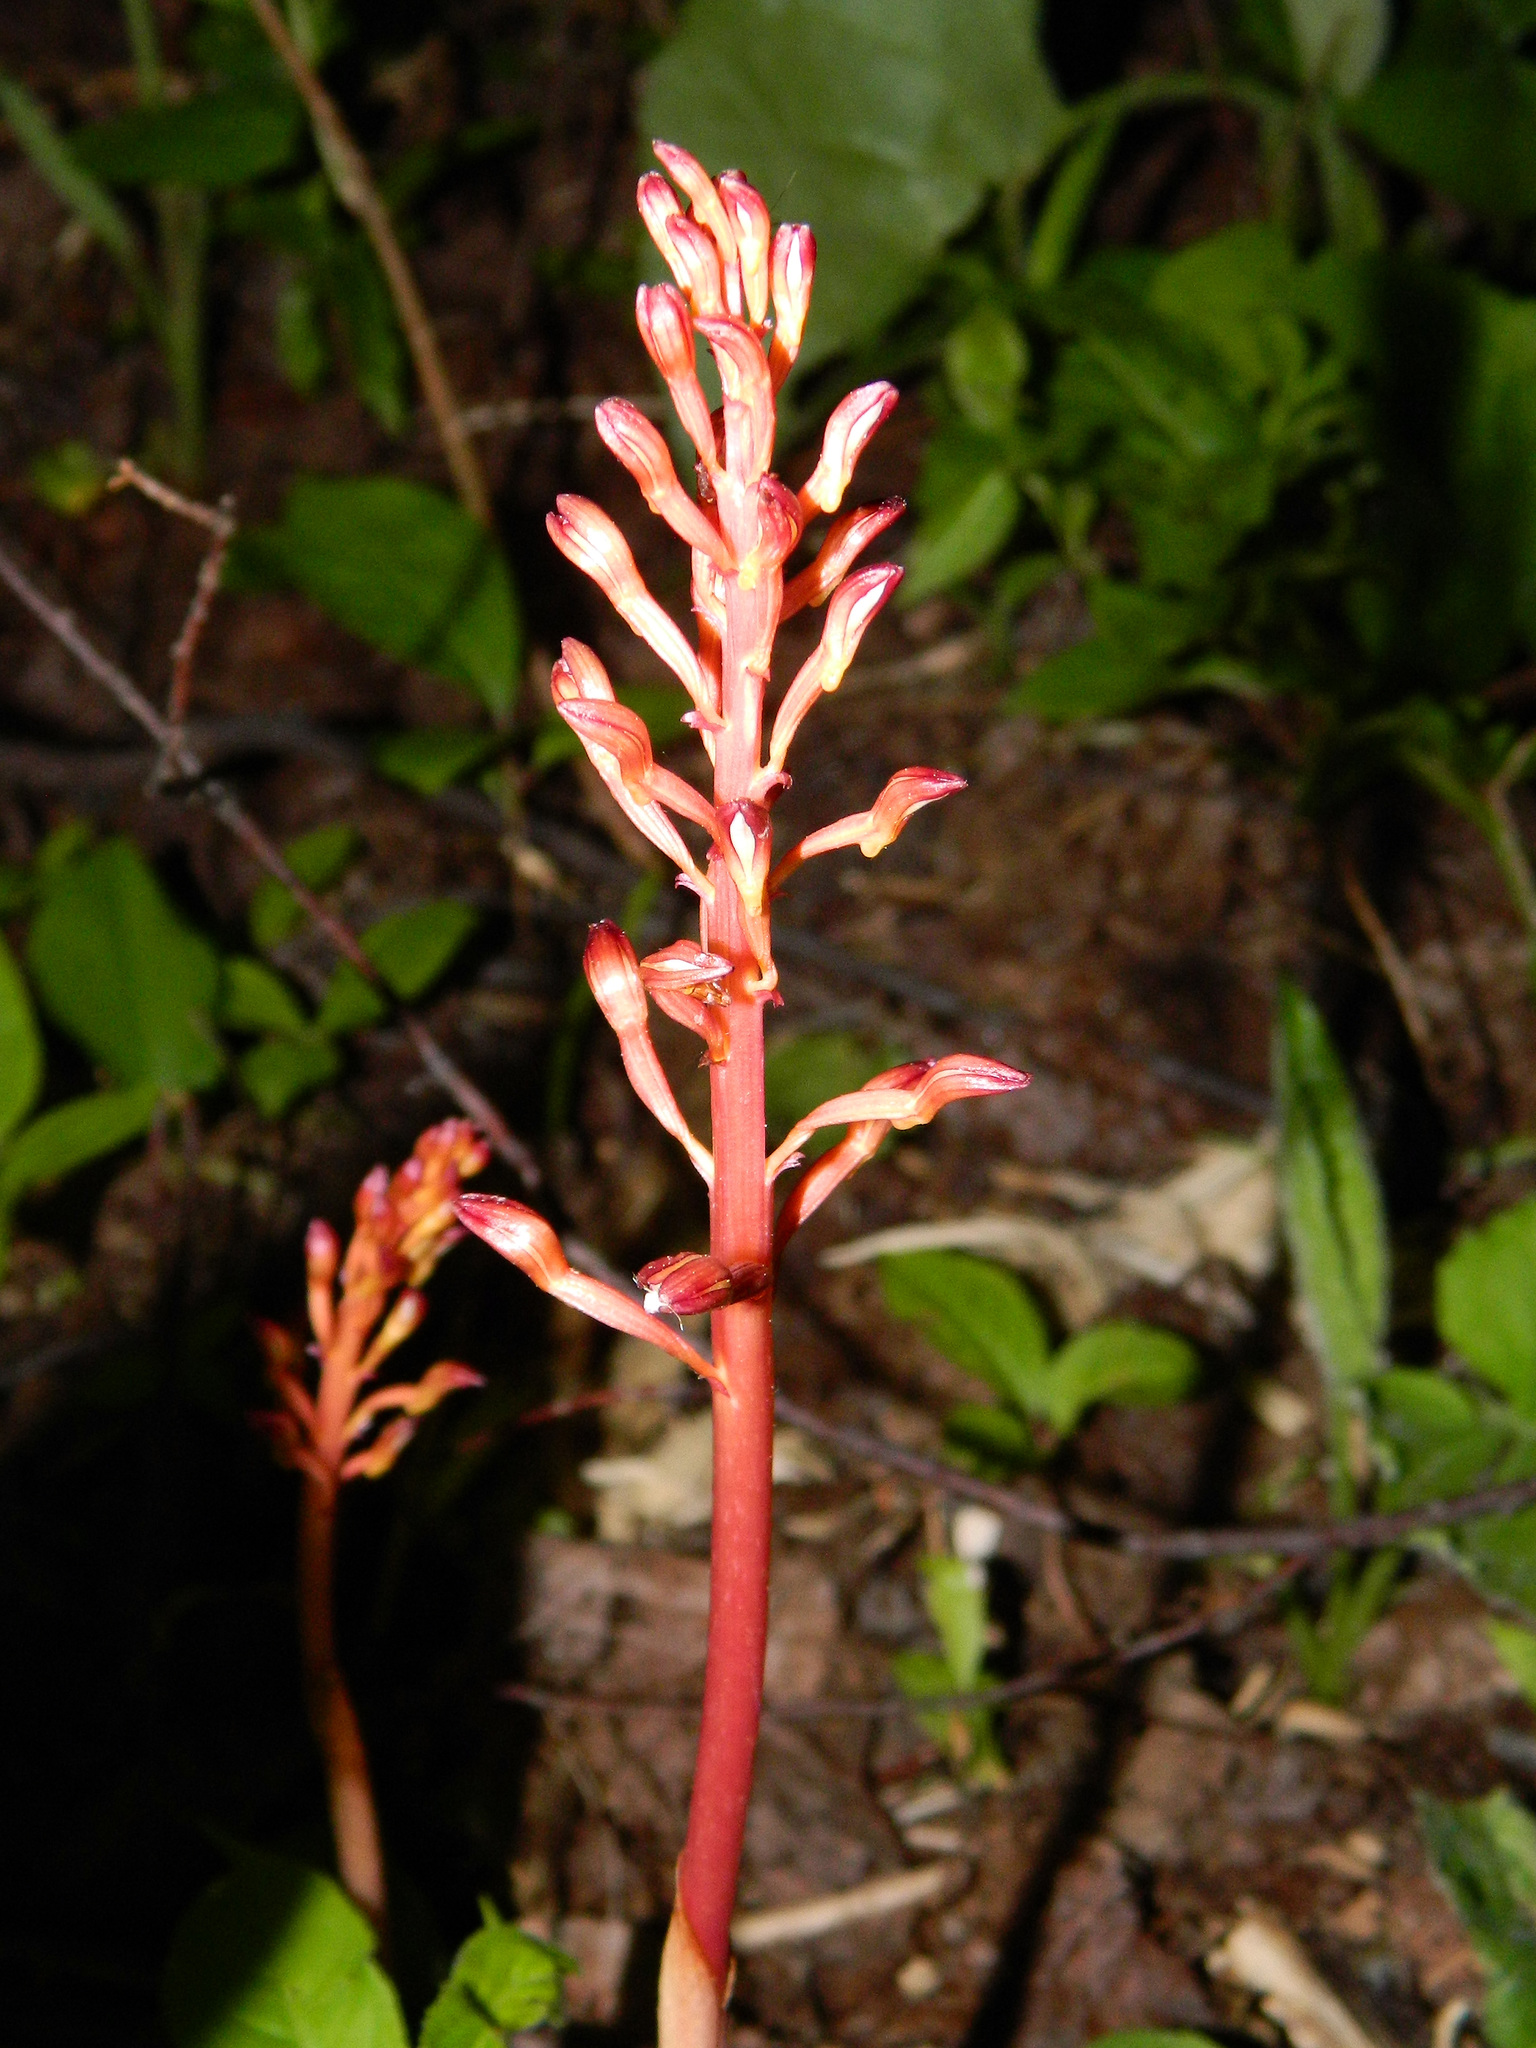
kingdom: Plantae
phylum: Tracheophyta
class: Liliopsida
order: Asparagales
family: Orchidaceae
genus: Corallorhiza
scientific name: Corallorhiza maculata
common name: Spotted coralroot
